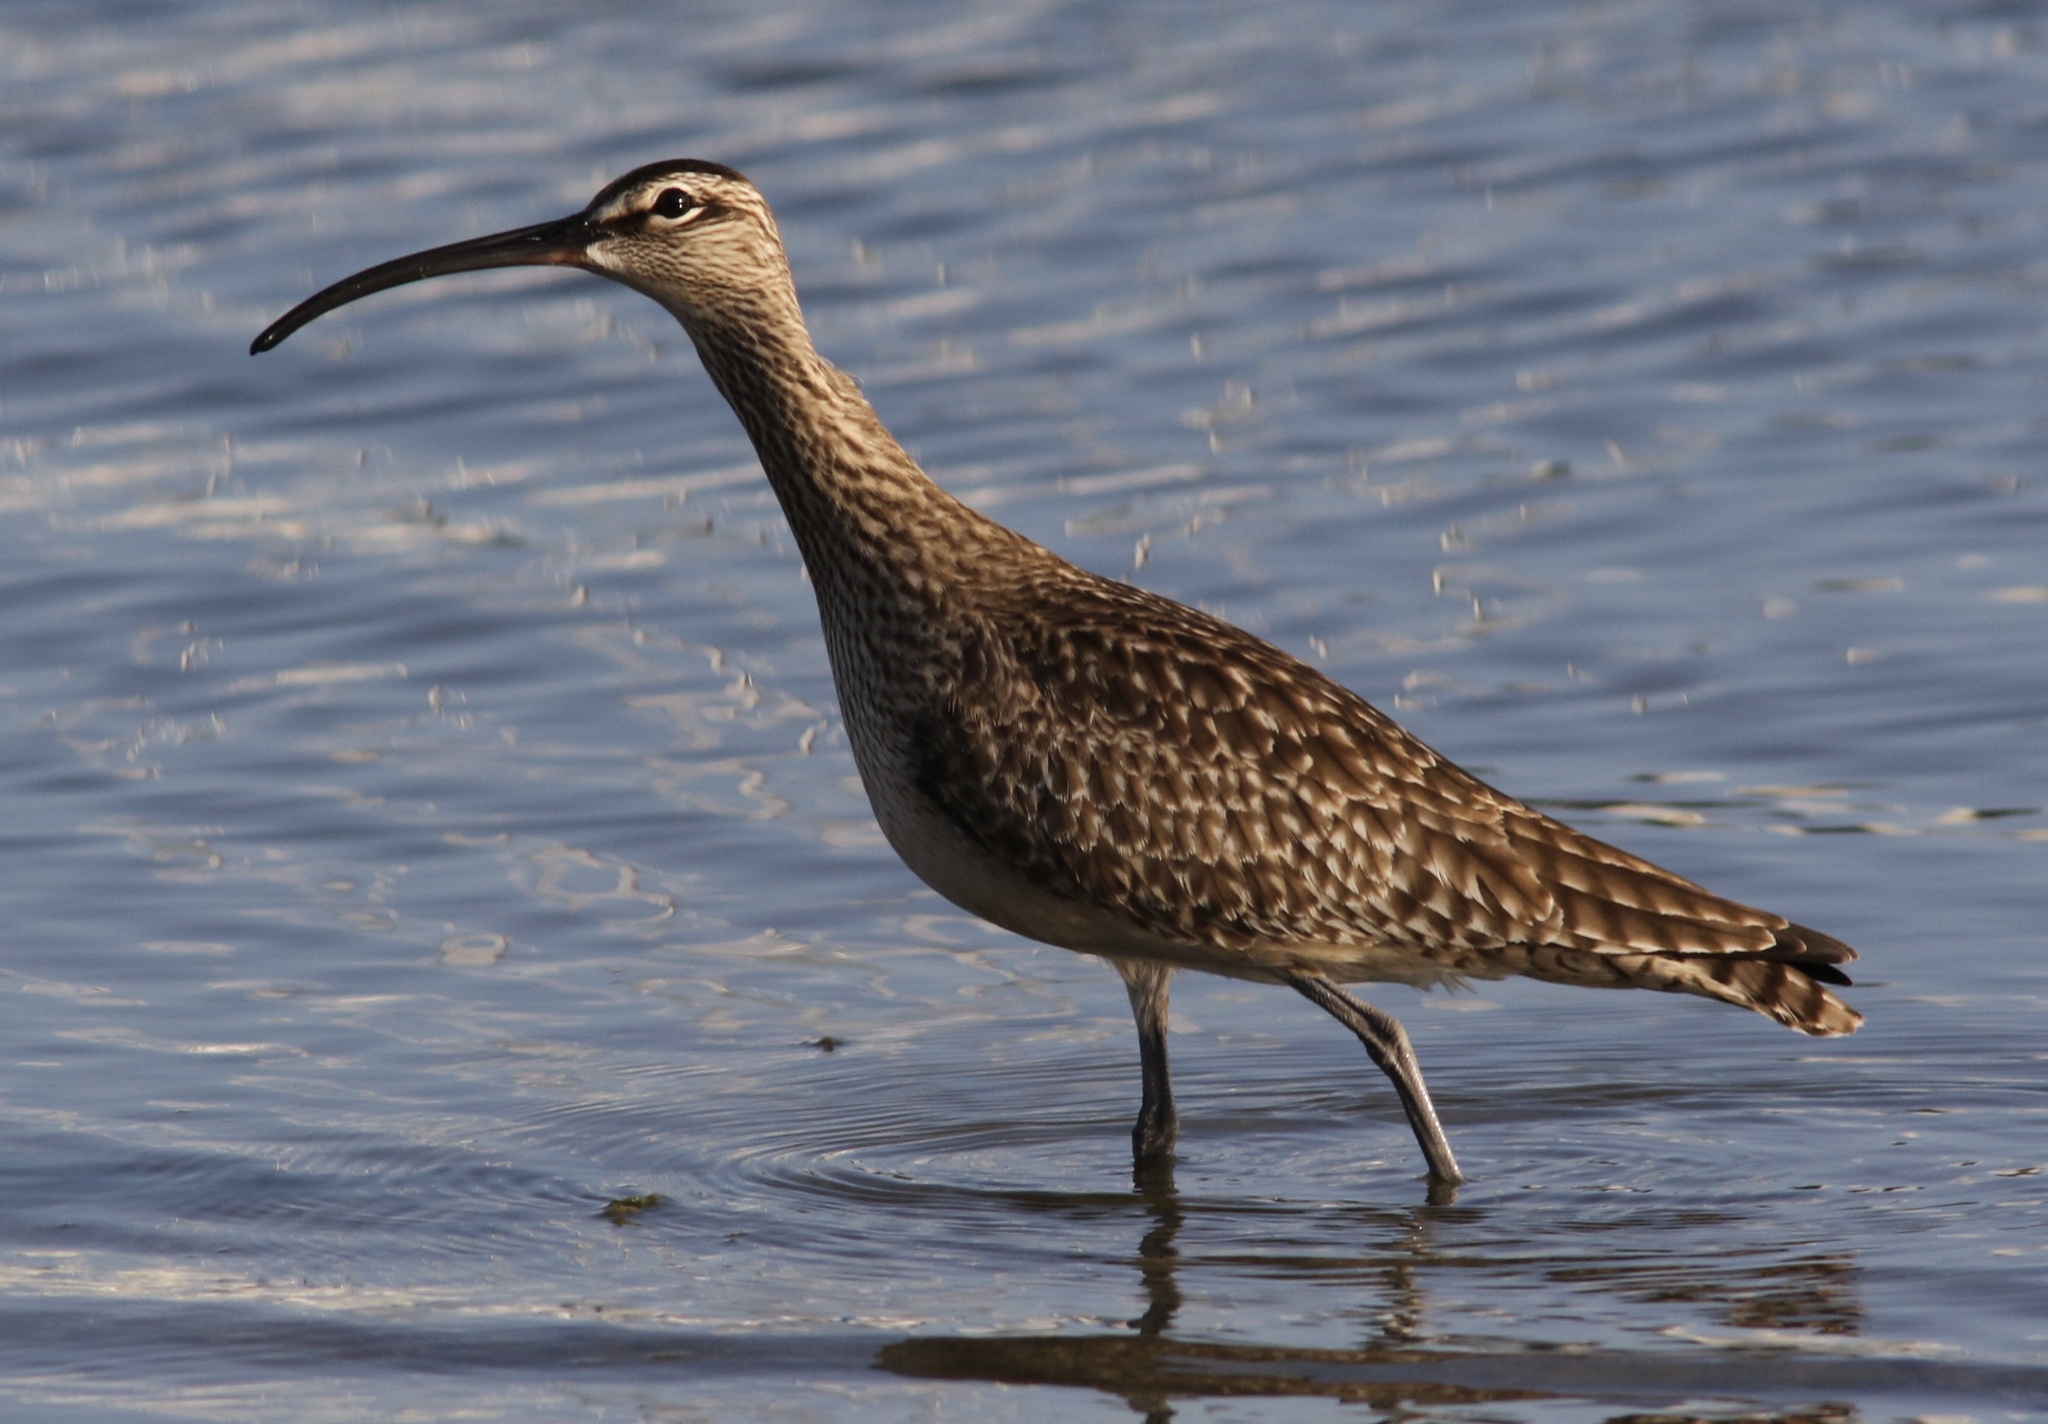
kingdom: Animalia
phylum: Chordata
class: Aves
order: Charadriiformes
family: Scolopacidae
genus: Numenius
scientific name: Numenius phaeopus
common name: Whimbrel
